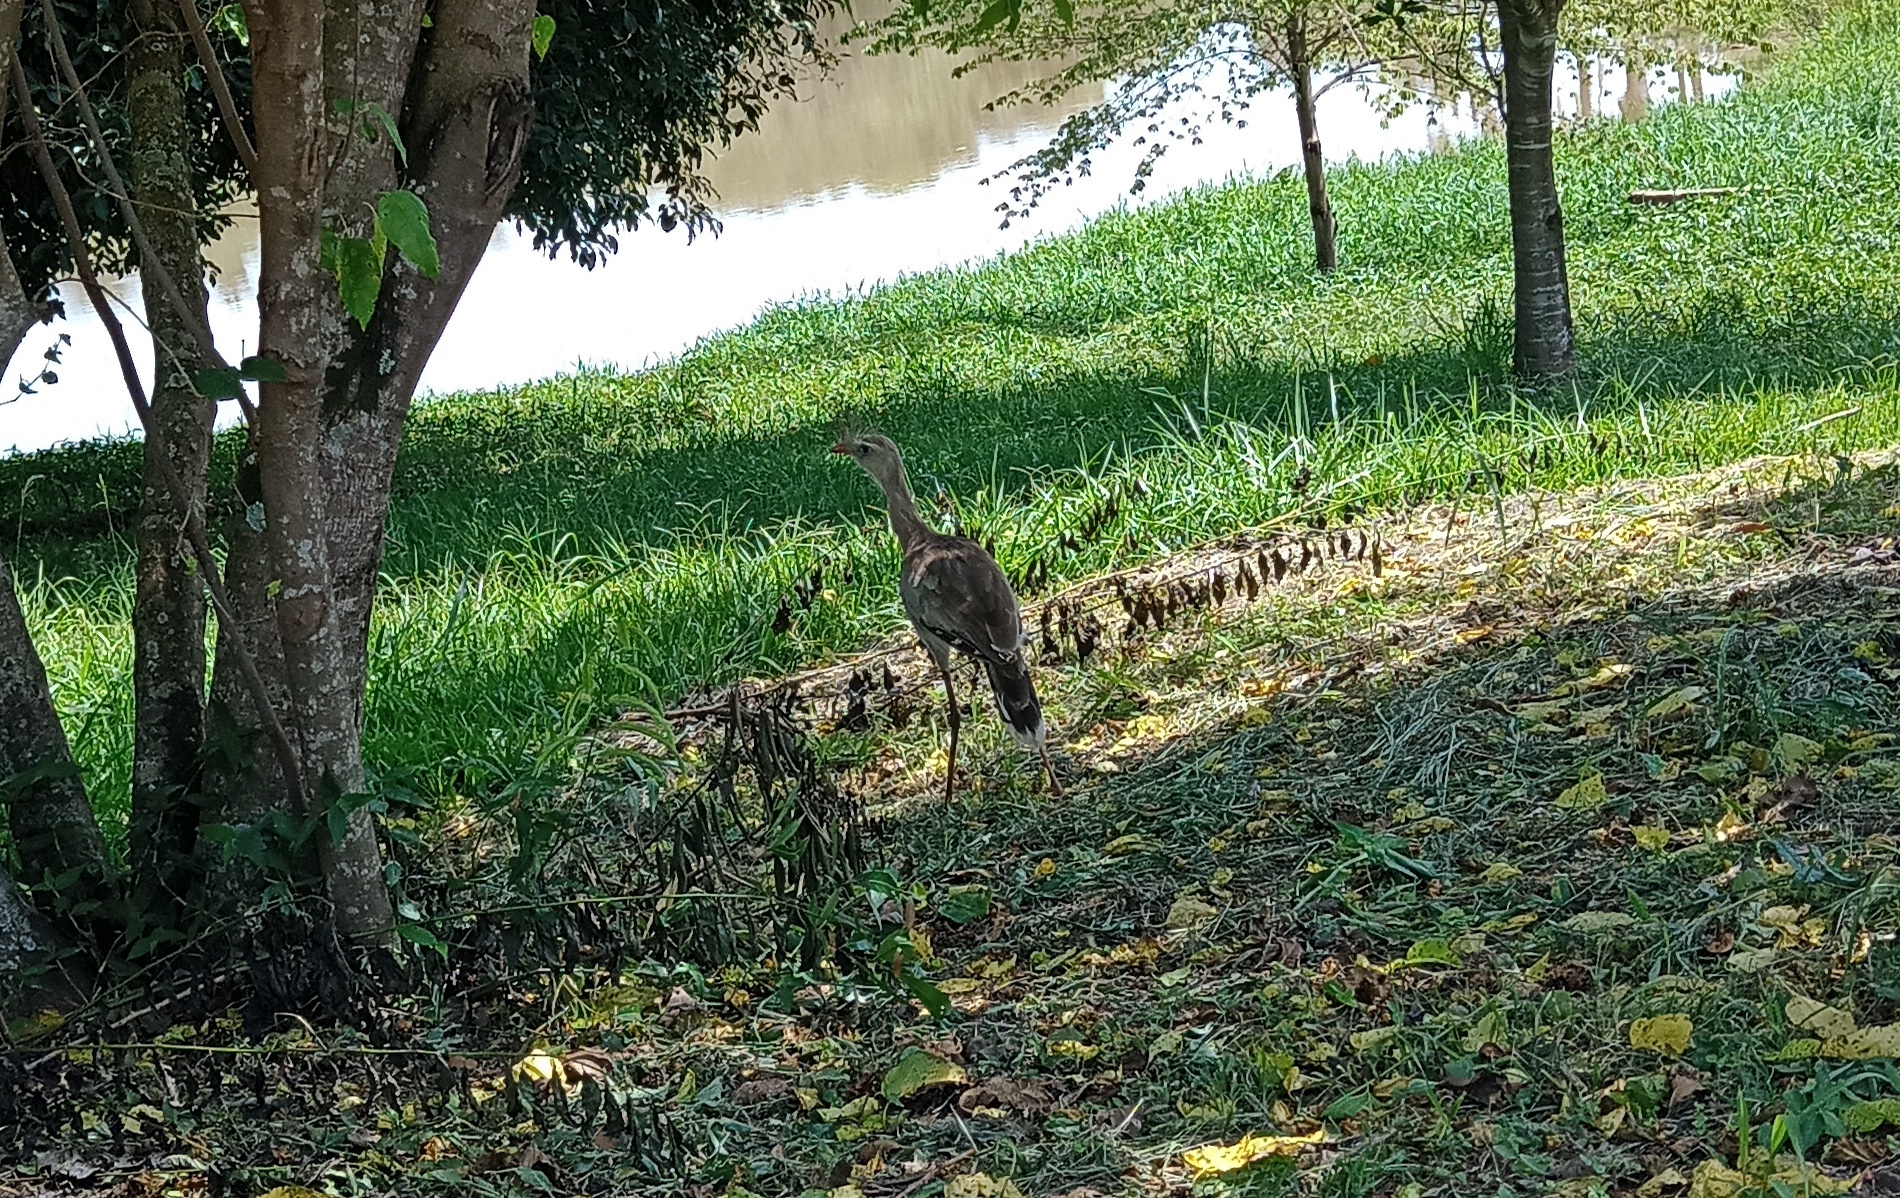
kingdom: Animalia
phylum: Chordata
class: Aves
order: Cariamiformes
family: Cariamidae
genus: Cariama
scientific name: Cariama cristata
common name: Red-legged seriema
